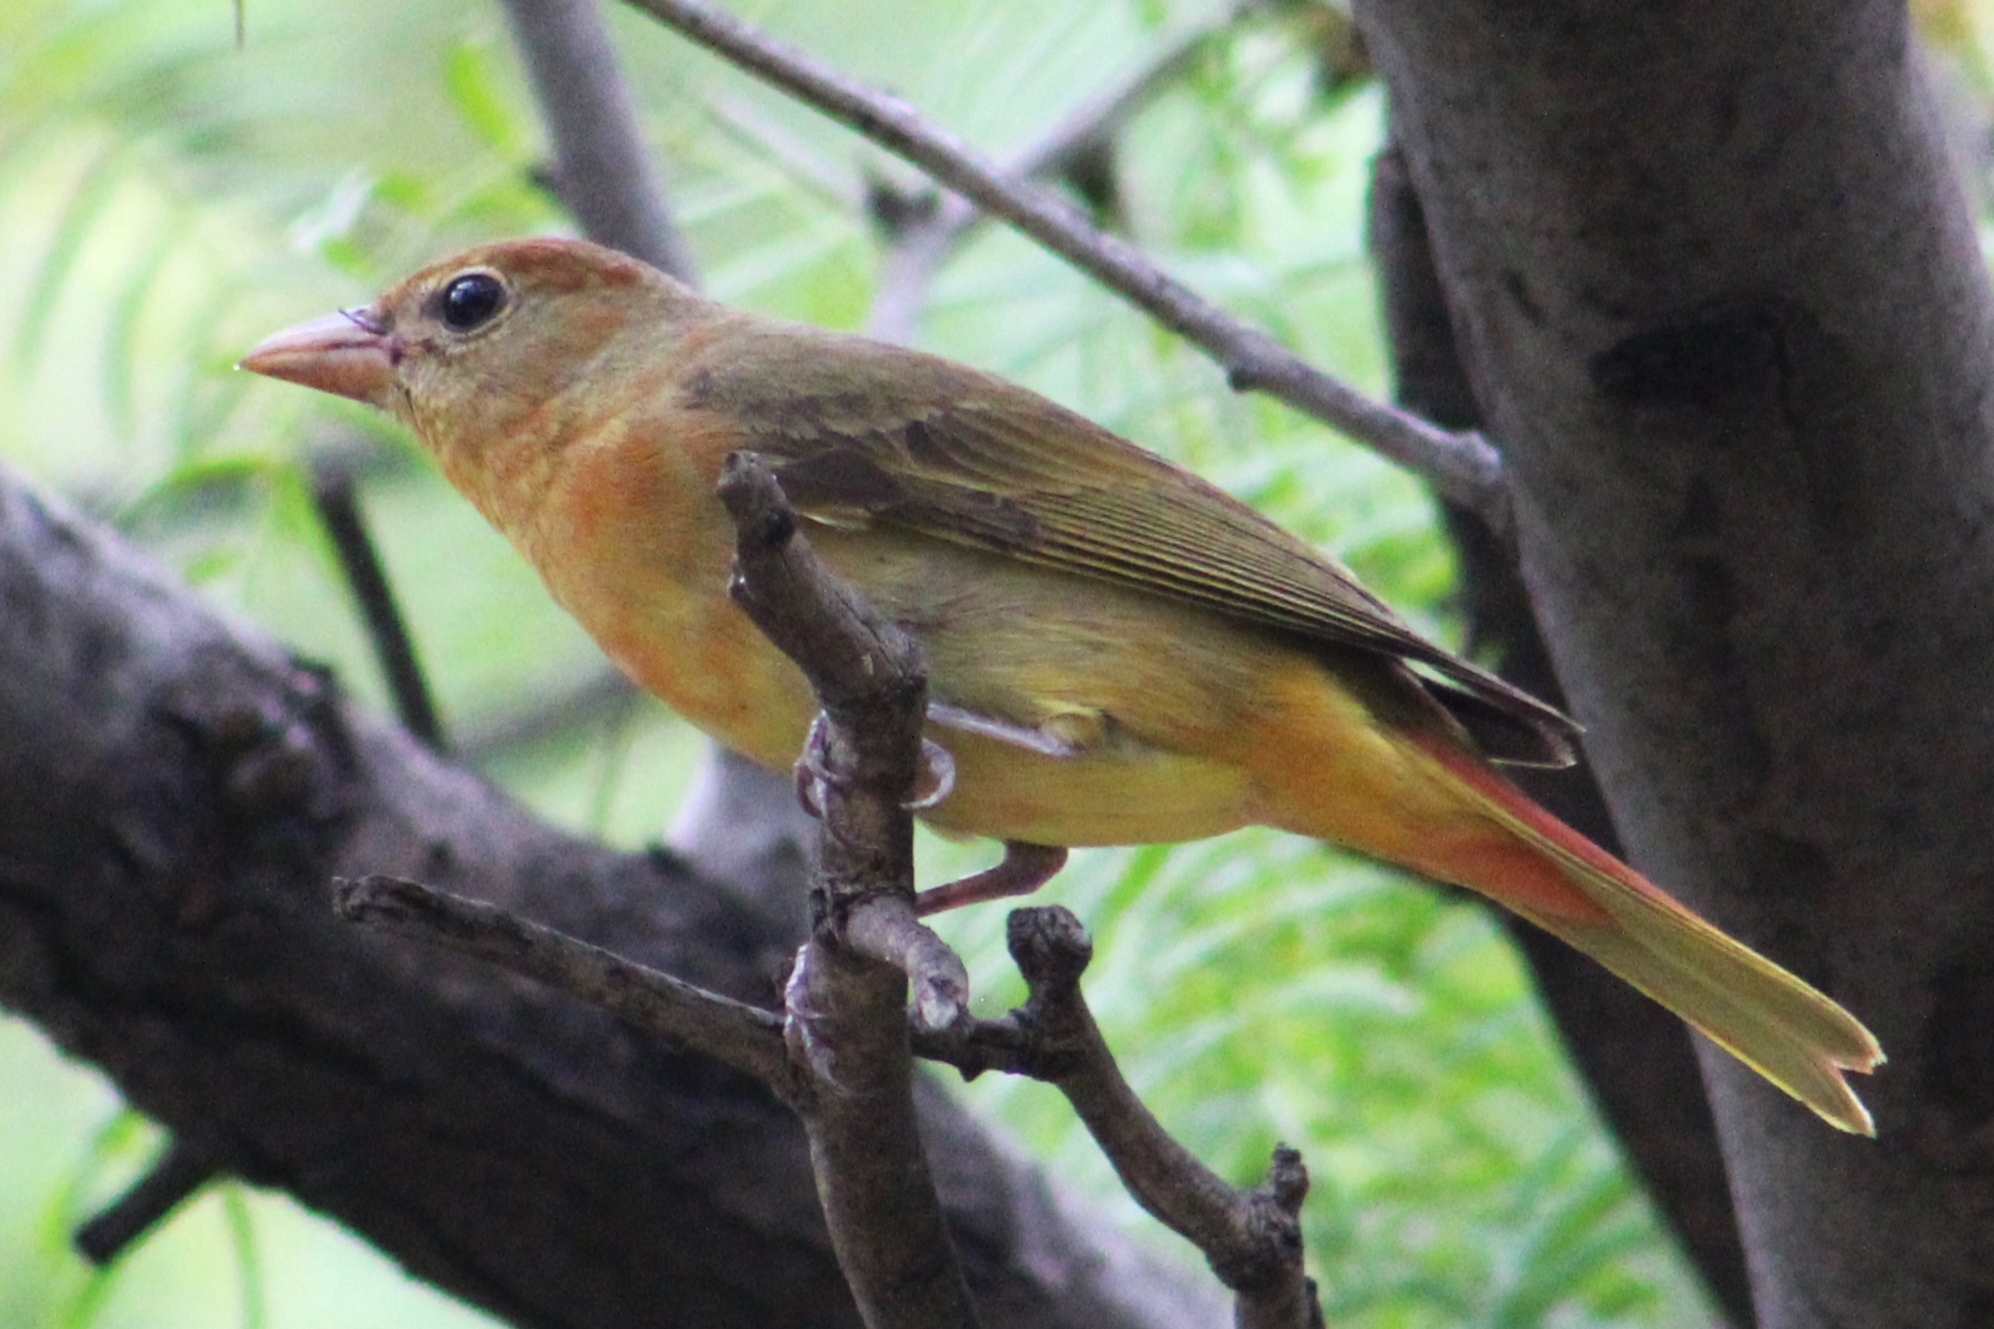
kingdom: Animalia
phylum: Chordata
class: Aves
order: Passeriformes
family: Cardinalidae
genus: Piranga
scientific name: Piranga rubra
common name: Summer tanager
